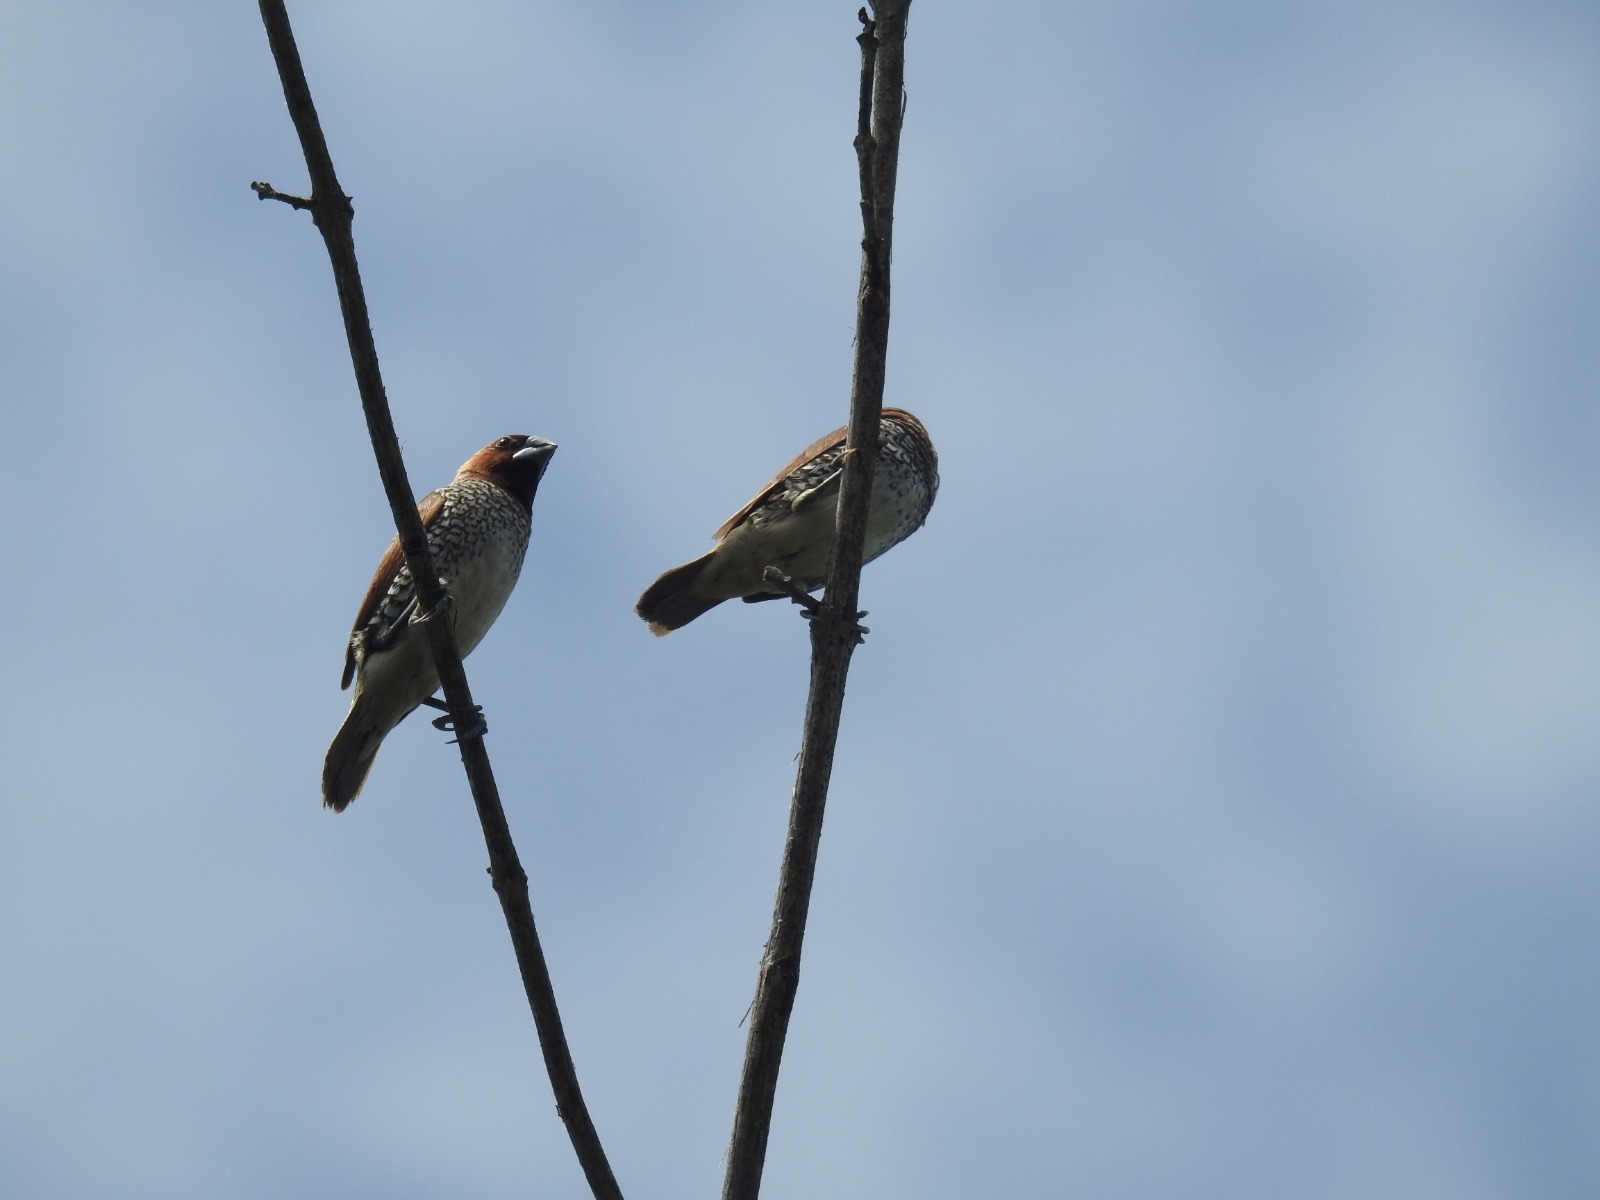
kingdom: Animalia
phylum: Chordata
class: Aves
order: Passeriformes
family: Estrildidae
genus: Lonchura
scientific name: Lonchura punctulata
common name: Scaly-breasted munia
